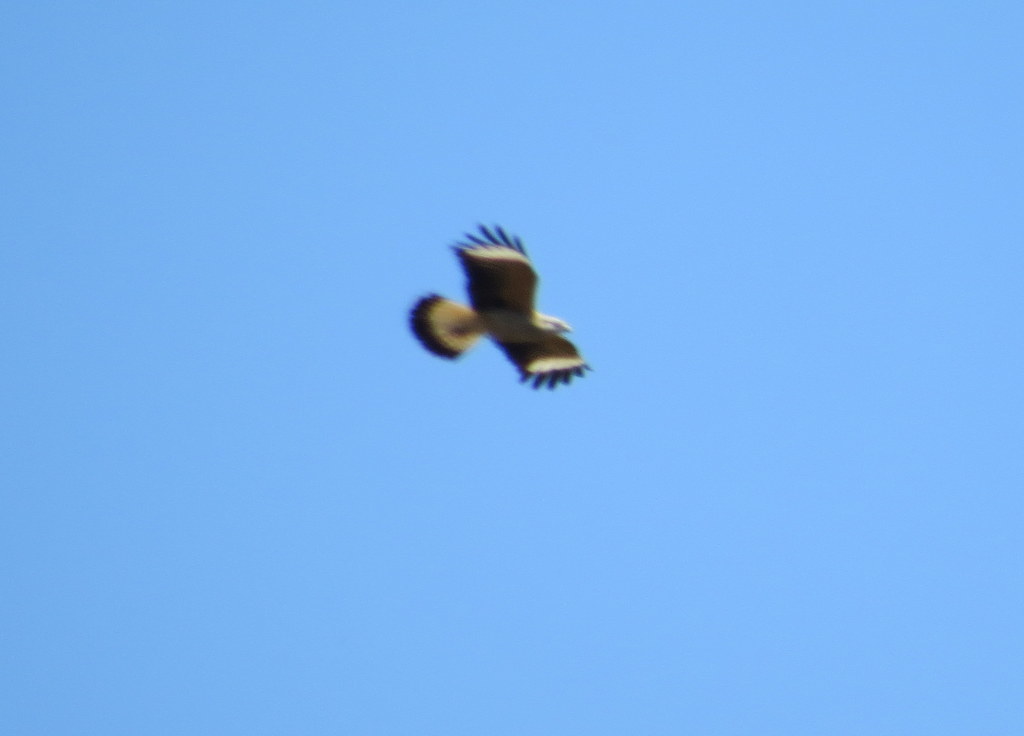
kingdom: Animalia
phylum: Chordata
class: Aves
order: Falconiformes
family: Falconidae
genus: Daptrius
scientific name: Daptrius
